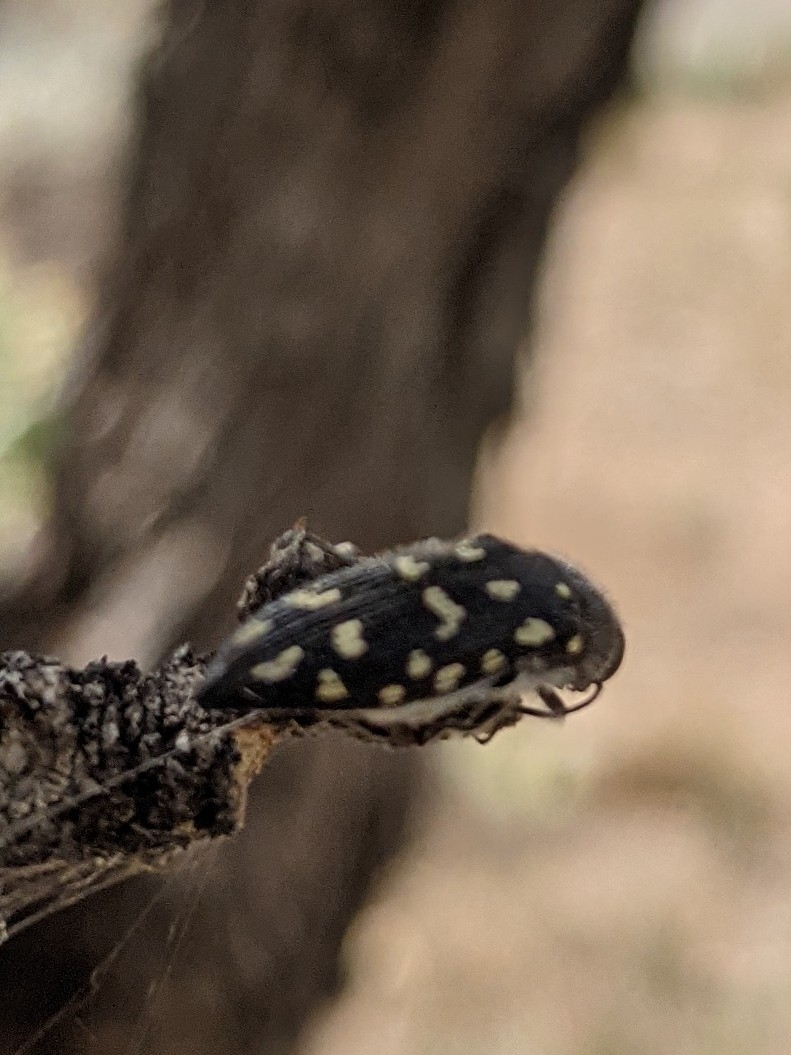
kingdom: Animalia
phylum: Arthropoda
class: Insecta
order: Coleoptera
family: Buprestidae
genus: Acmaeodera
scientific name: Acmaeodera delumbis
